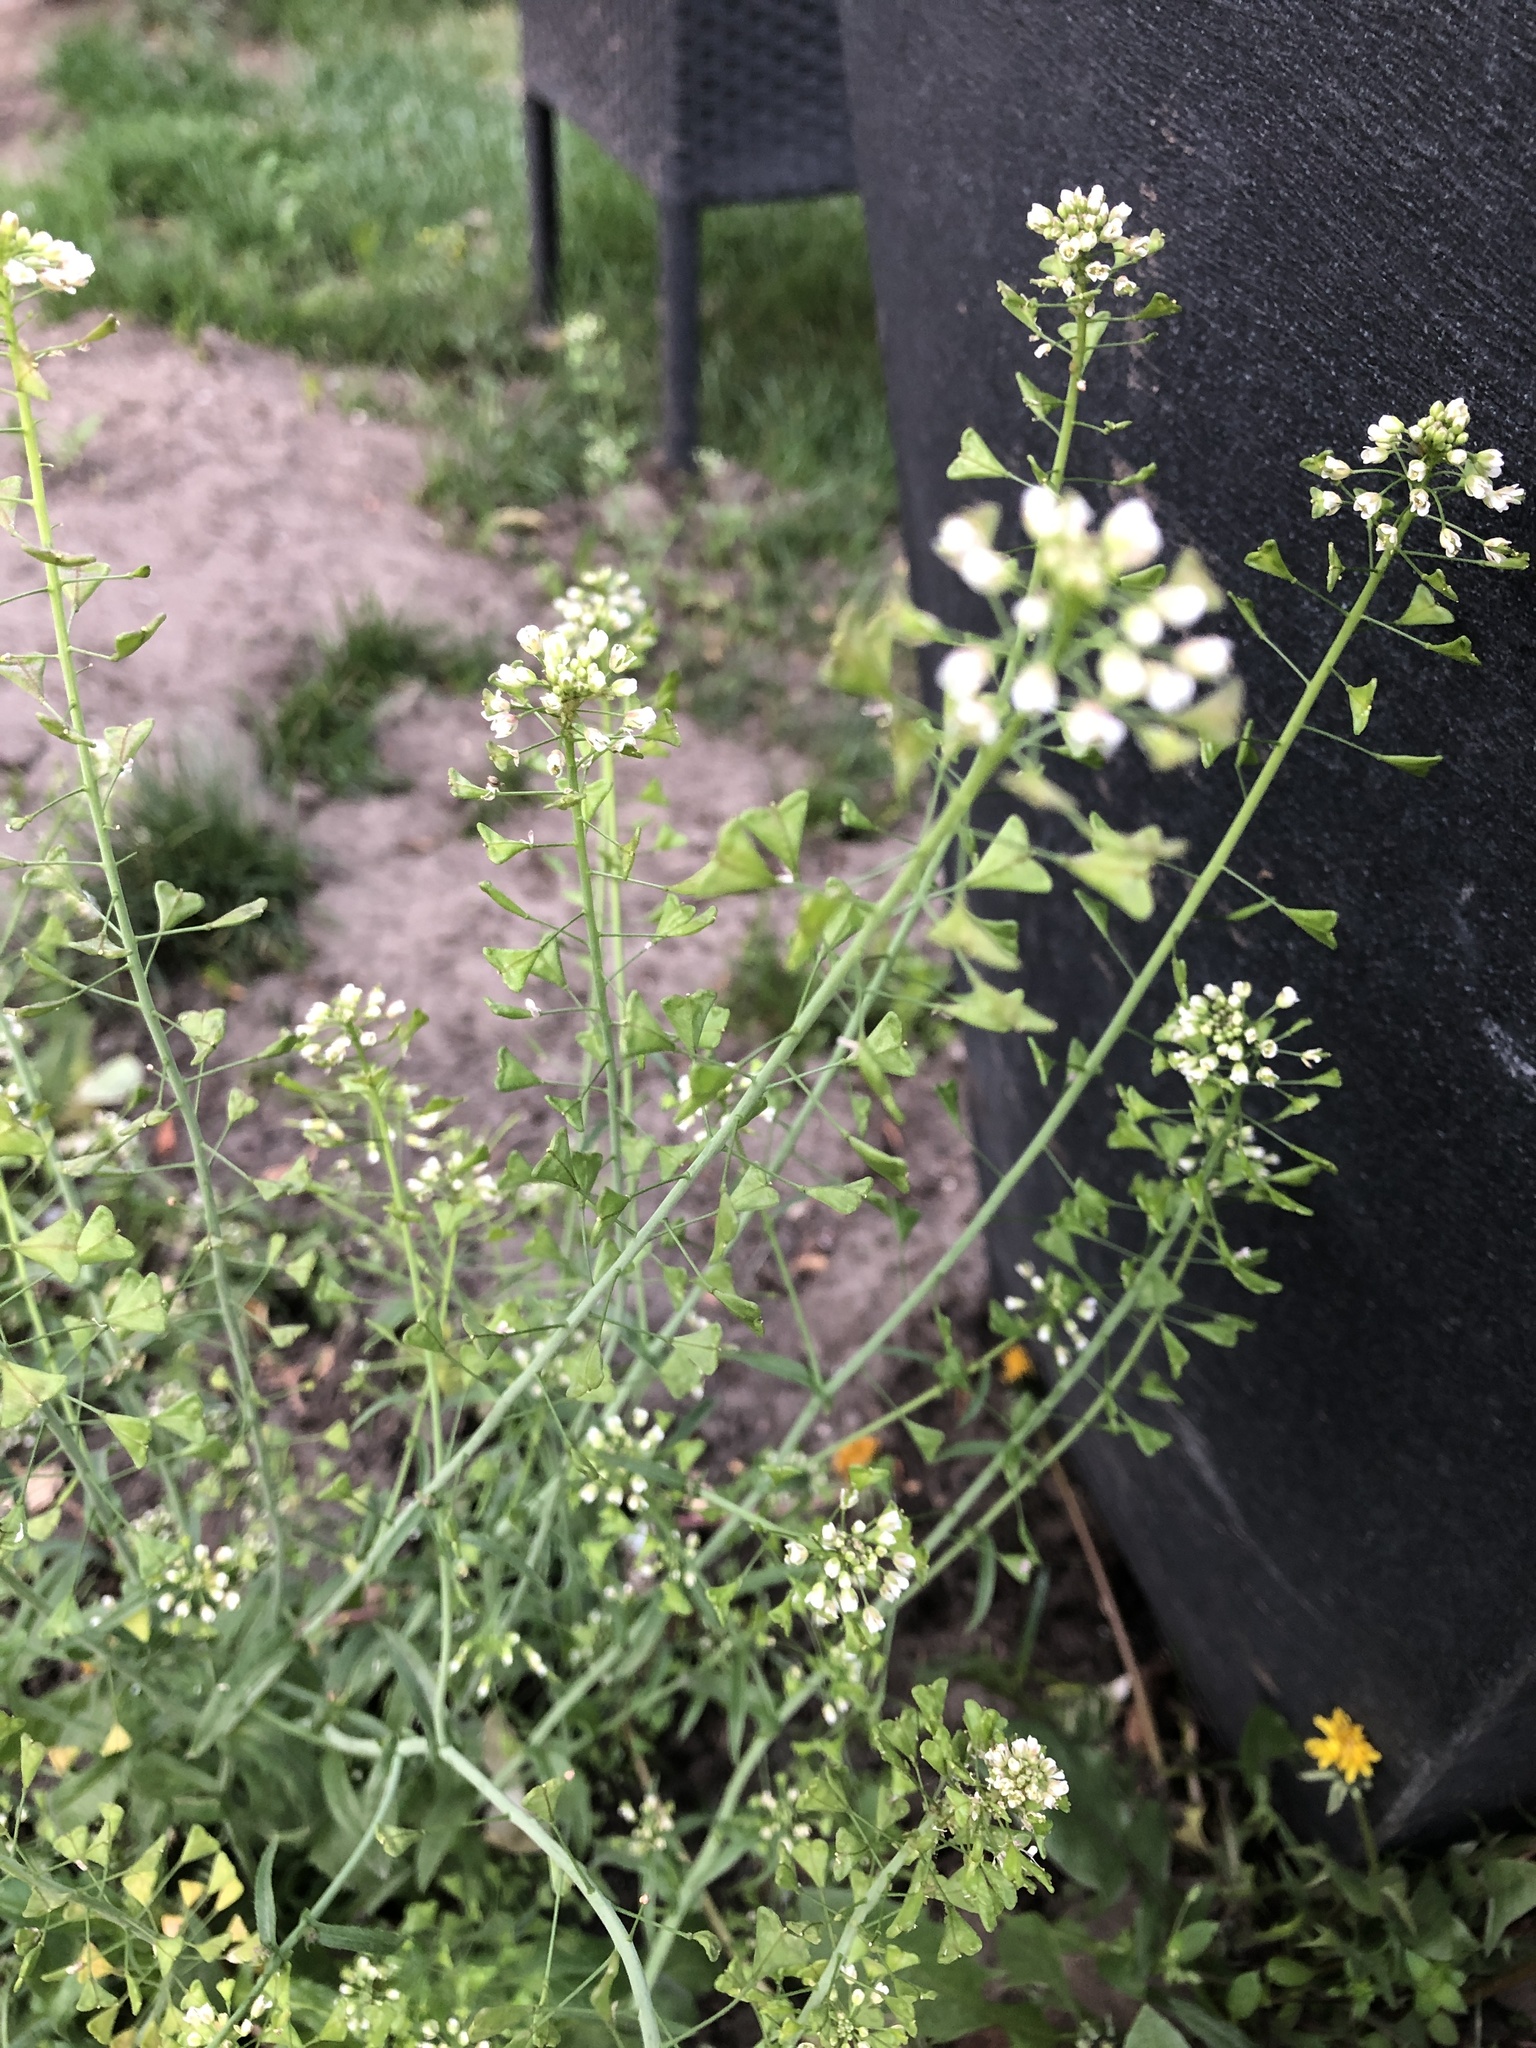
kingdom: Plantae
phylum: Tracheophyta
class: Magnoliopsida
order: Brassicales
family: Brassicaceae
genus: Capsella
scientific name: Capsella bursa-pastoris
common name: Shepherd's purse
